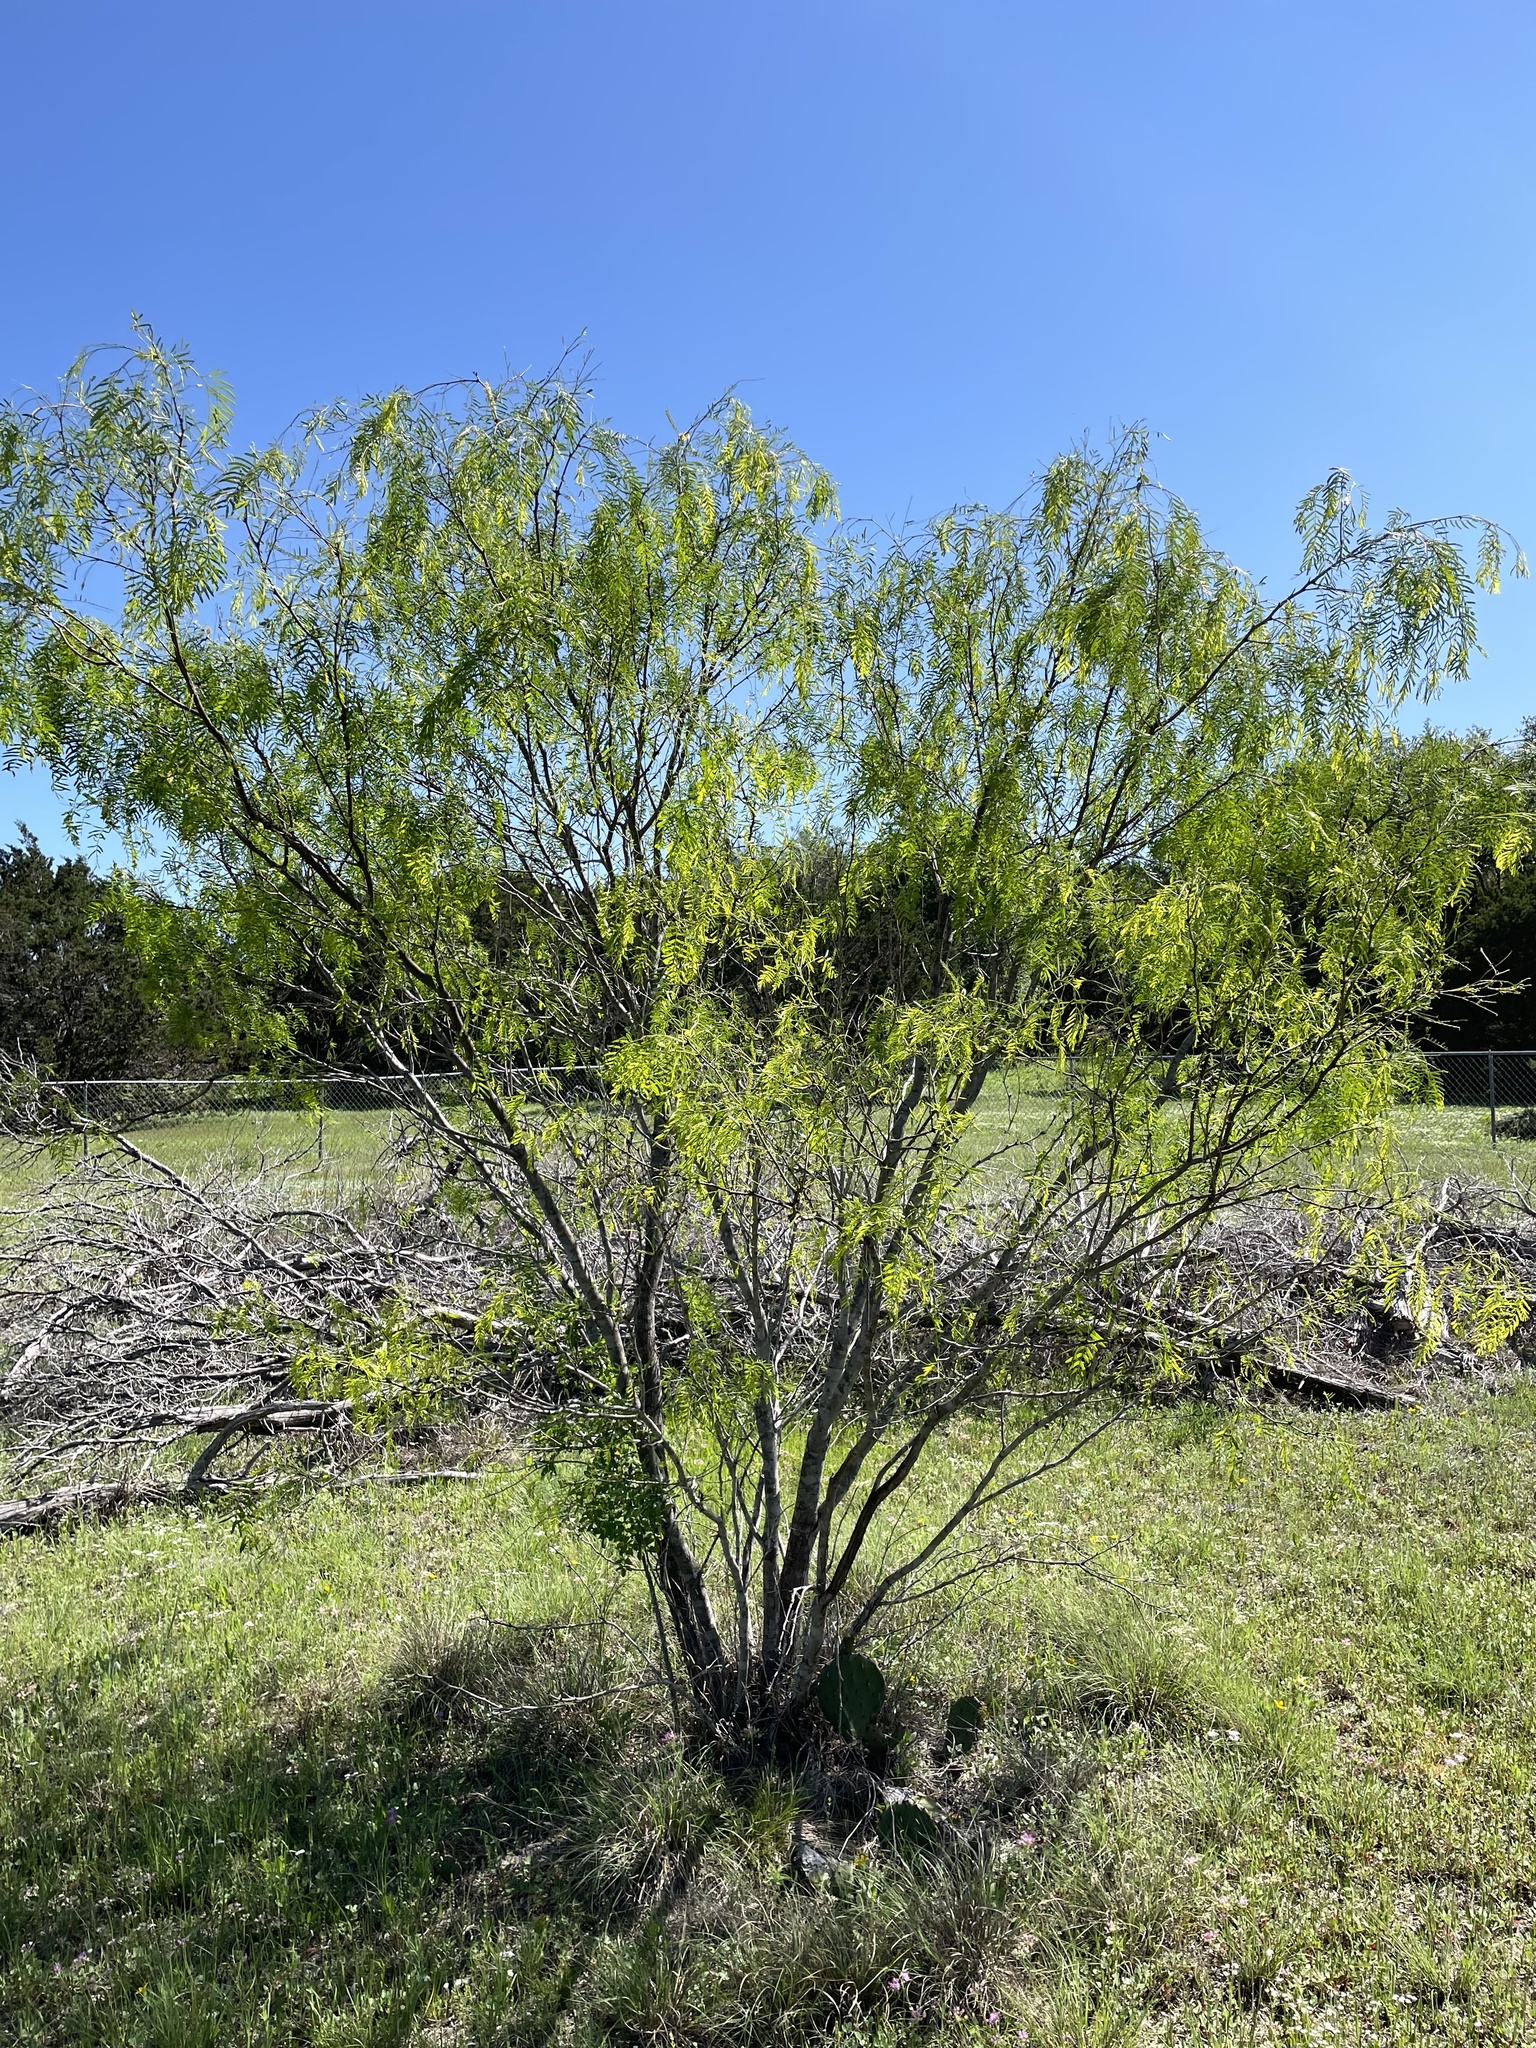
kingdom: Plantae
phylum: Tracheophyta
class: Magnoliopsida
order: Fabales
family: Fabaceae
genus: Prosopis
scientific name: Prosopis glandulosa
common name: Honey mesquite
